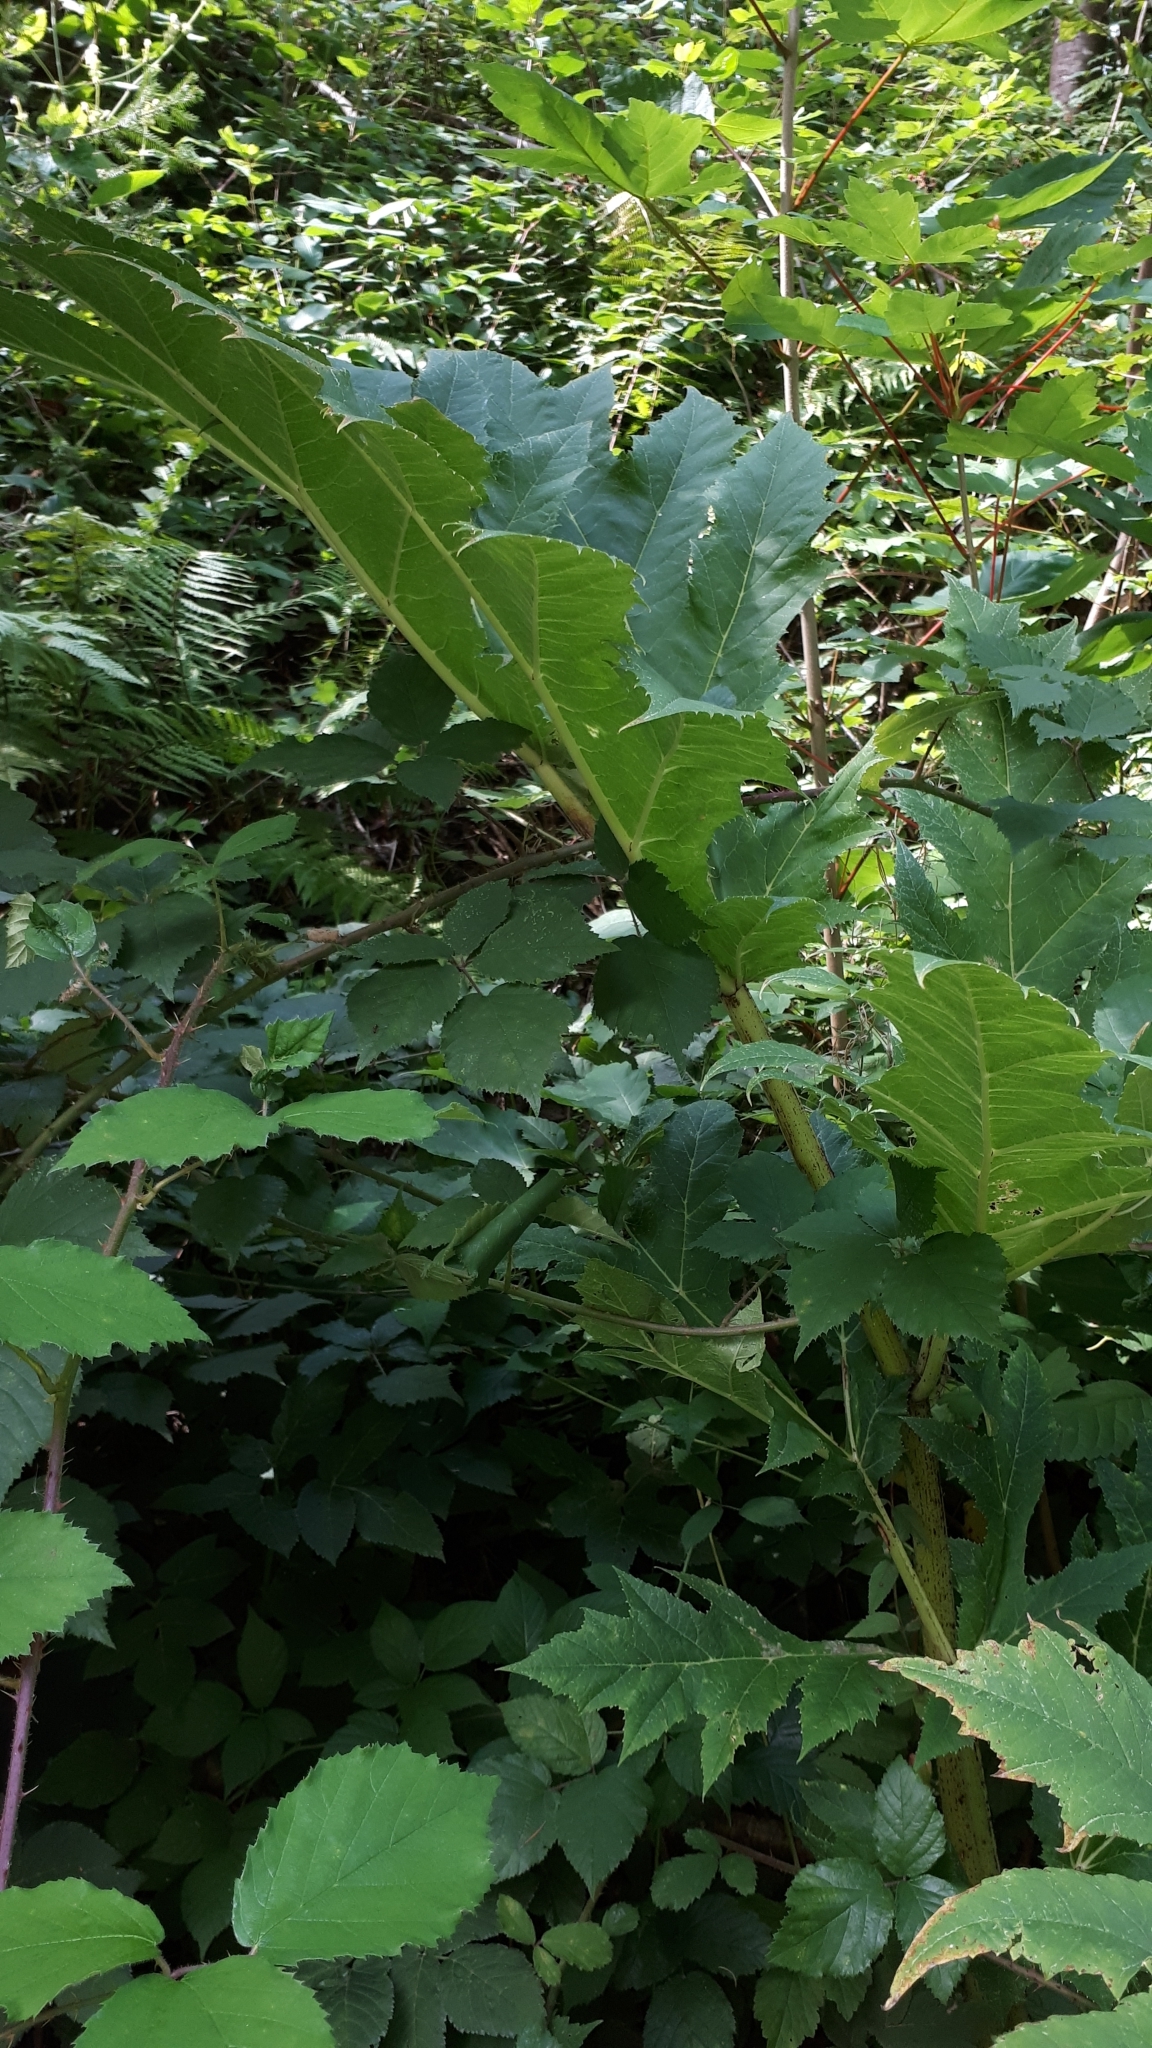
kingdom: Plantae
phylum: Tracheophyta
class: Magnoliopsida
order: Apiales
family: Apiaceae
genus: Heracleum
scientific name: Heracleum mantegazzianum
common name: Giant hogweed
